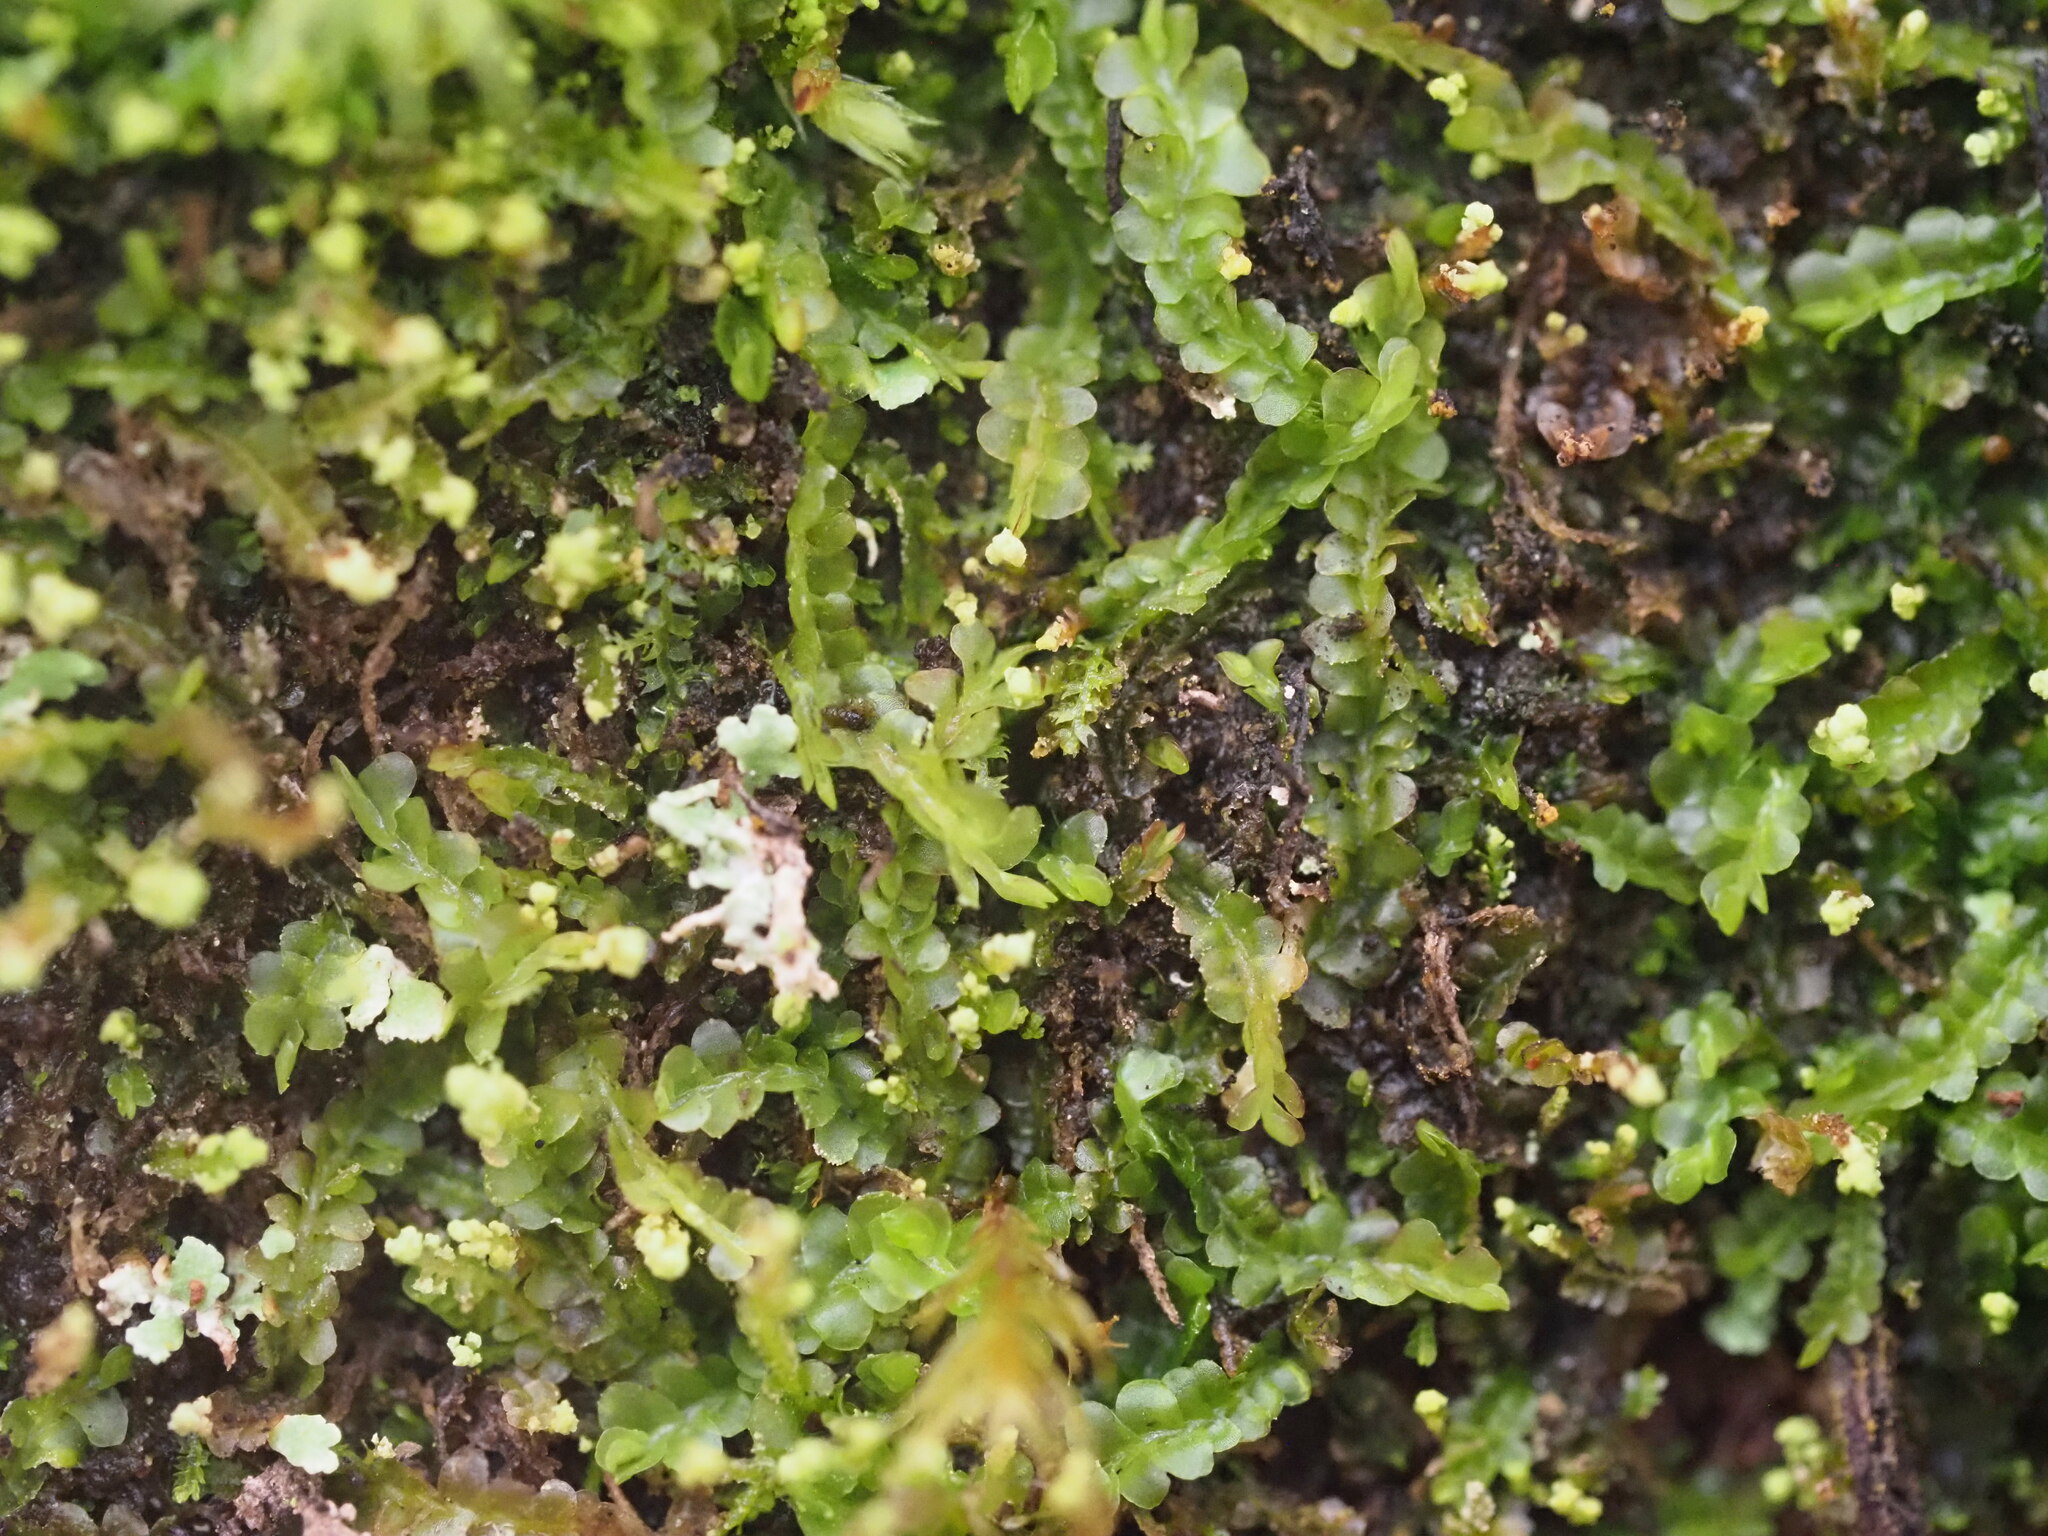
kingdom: Plantae
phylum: Marchantiophyta
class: Jungermanniopsida
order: Jungermanniales
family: Cephaloziaceae
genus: Odontoschisma
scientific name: Odontoschisma denudatum
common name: Matchstick flapwort
